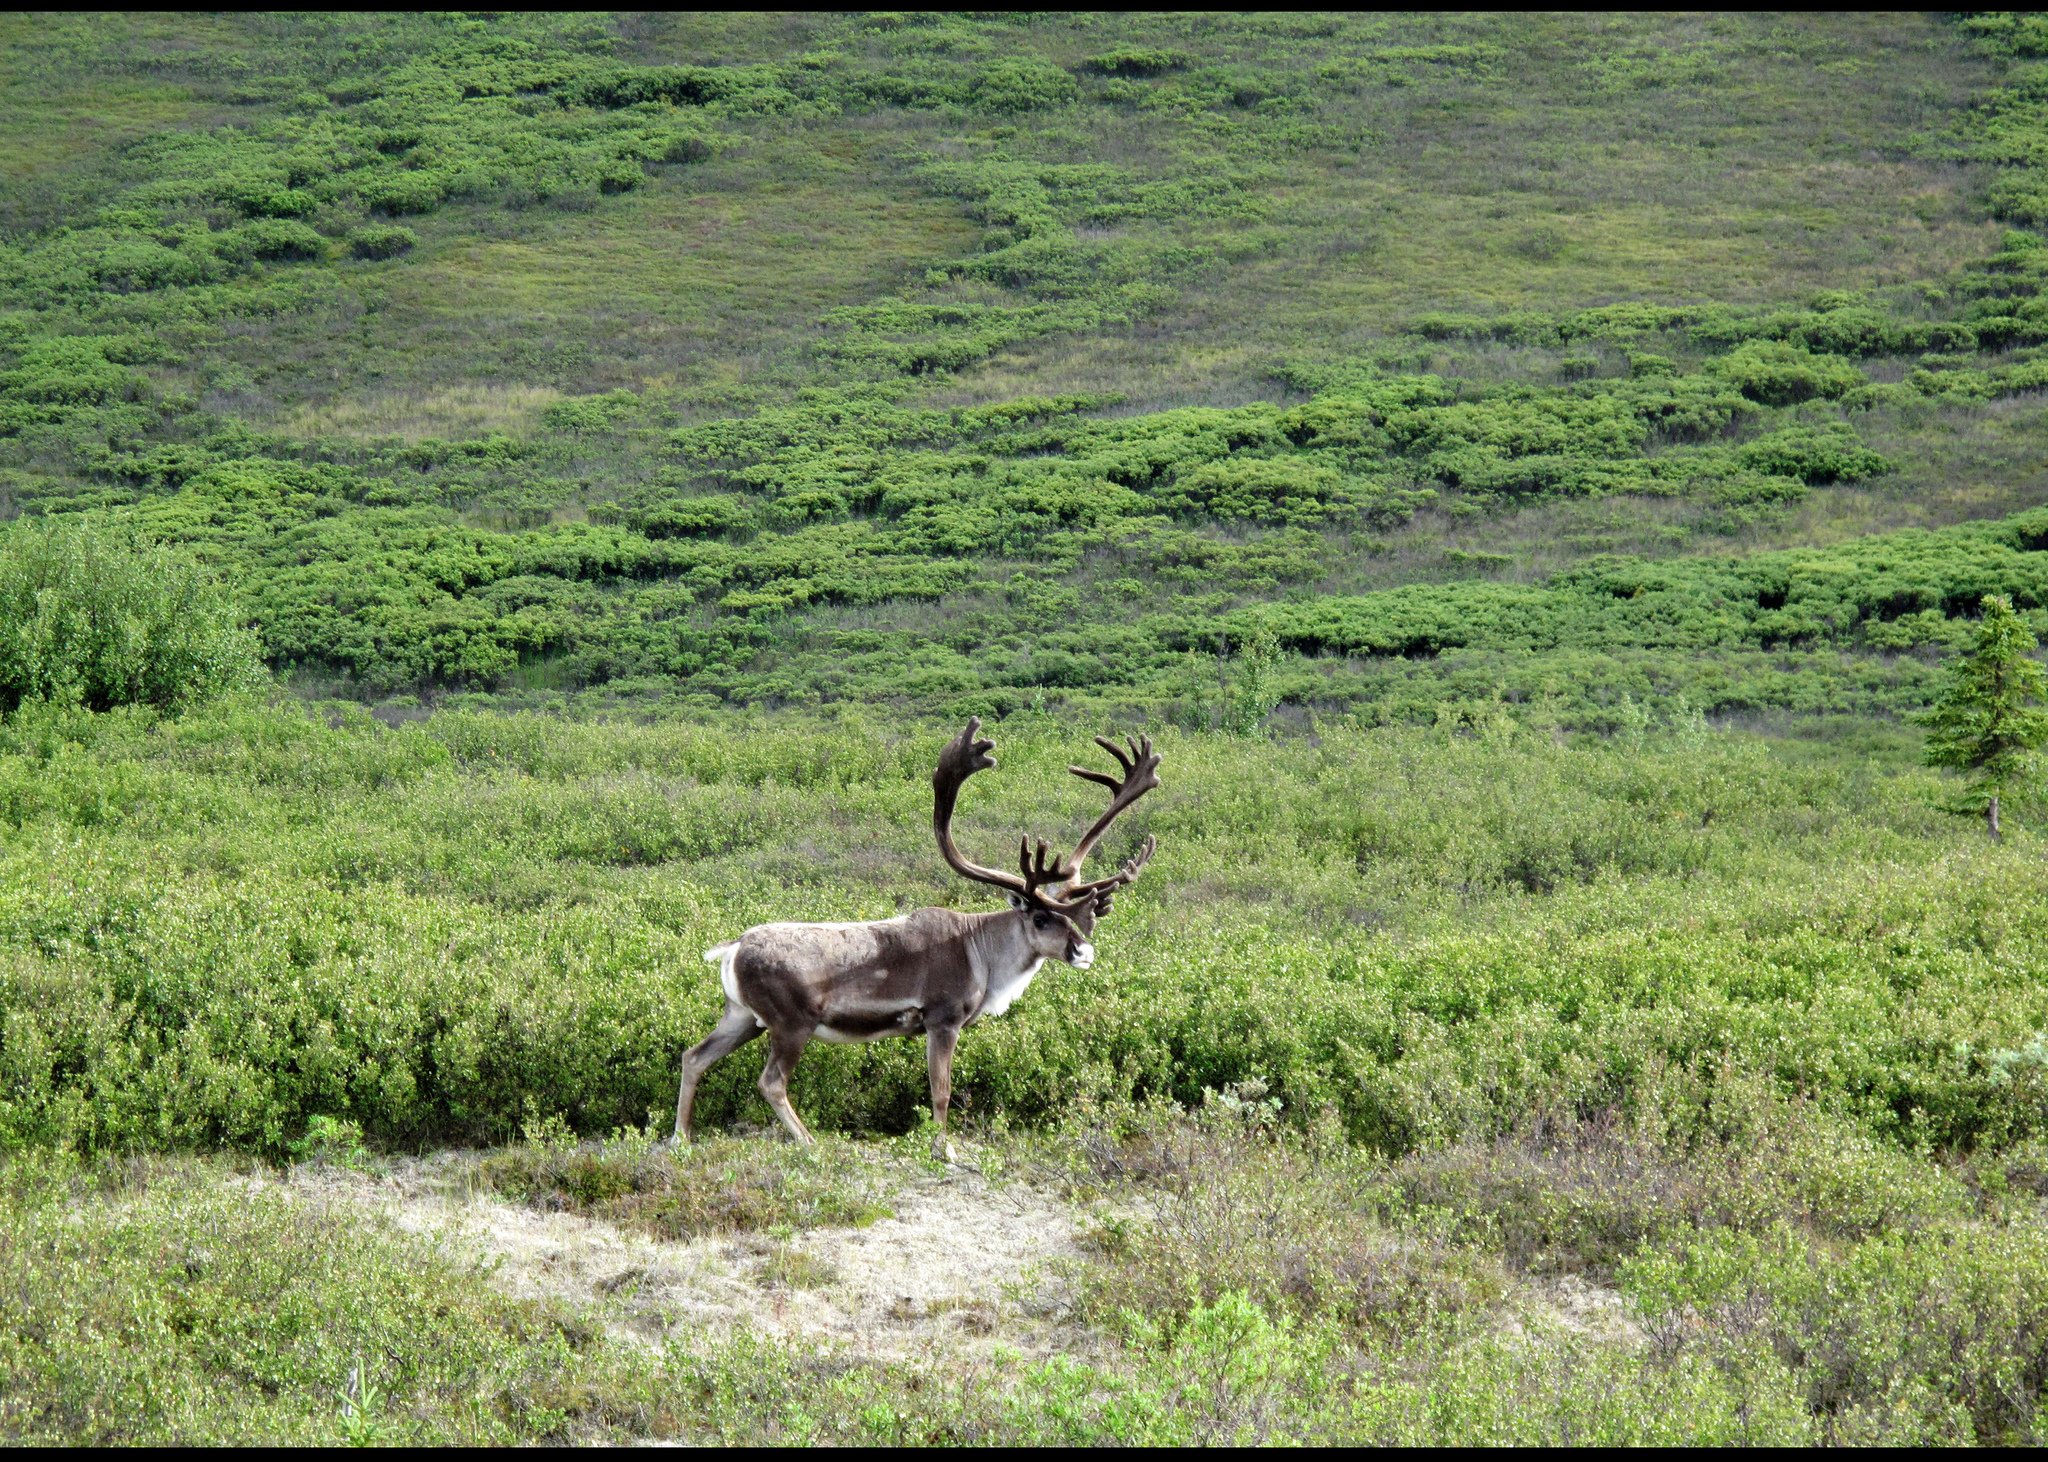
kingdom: Animalia
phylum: Chordata
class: Mammalia
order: Artiodactyla
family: Cervidae
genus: Rangifer
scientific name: Rangifer tarandus
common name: Reindeer
